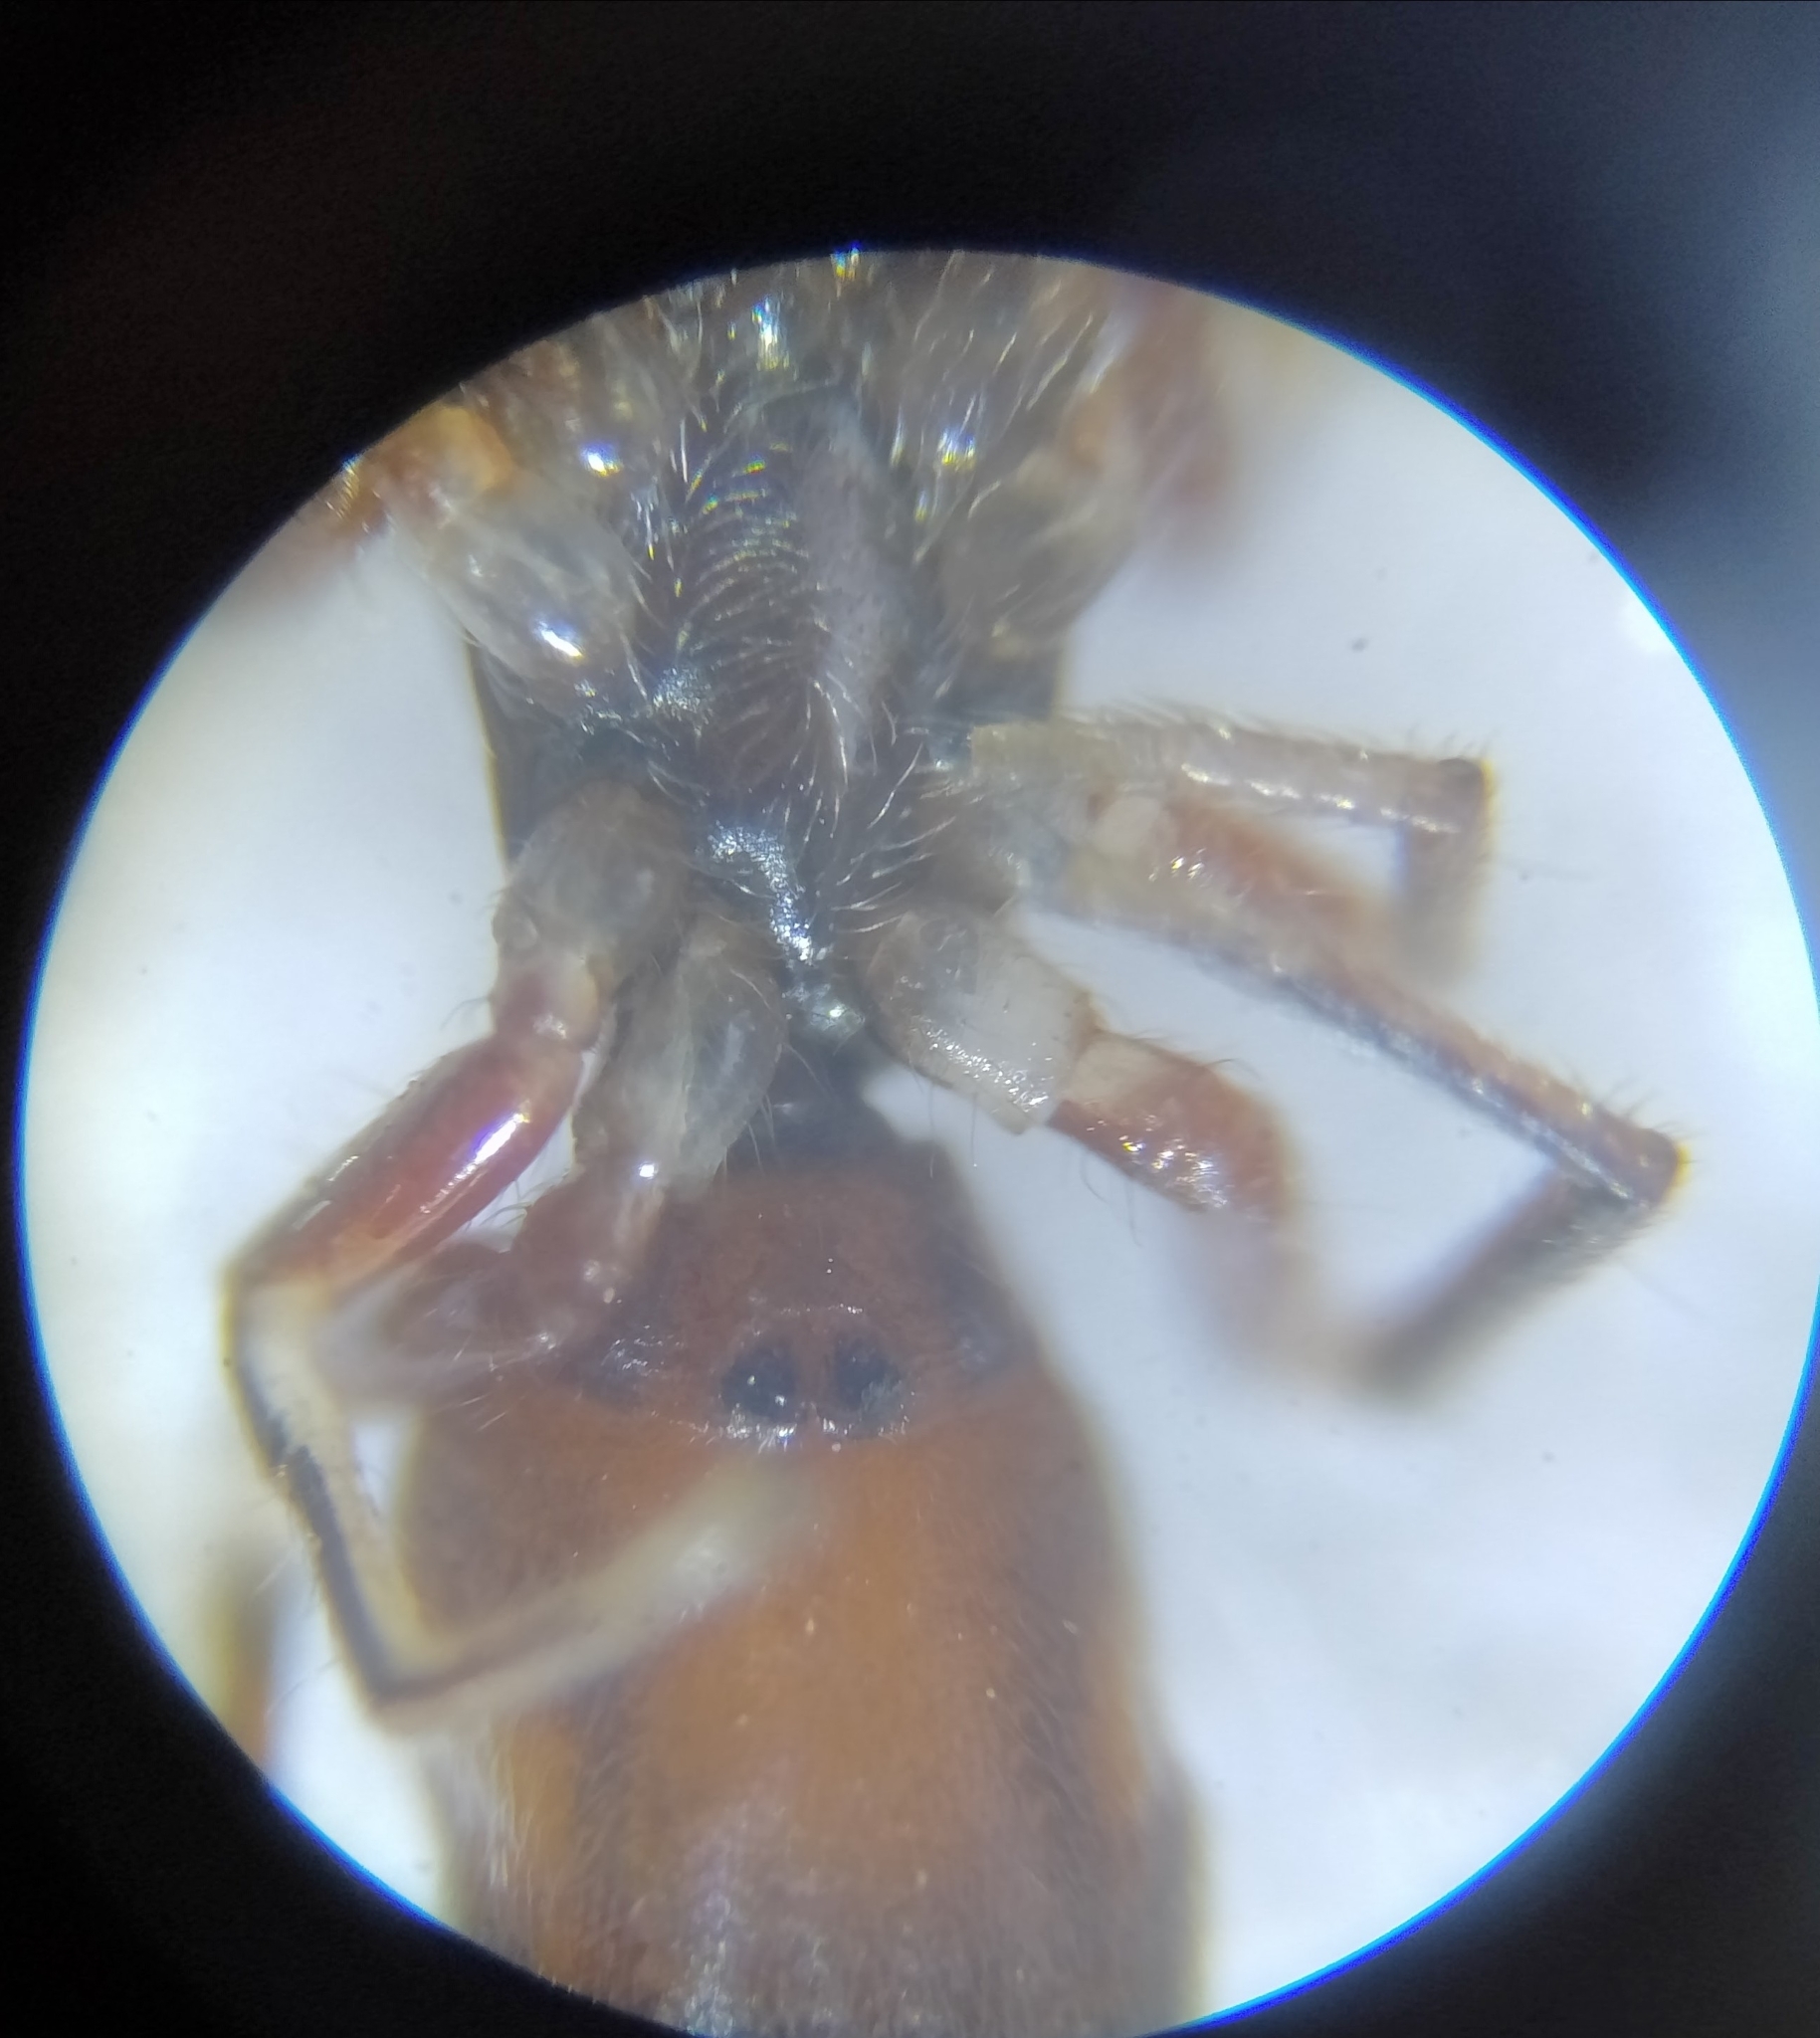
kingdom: Animalia
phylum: Arthropoda
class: Arachnida
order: Araneae
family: Salticidae
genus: Synageles
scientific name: Synageles venator
